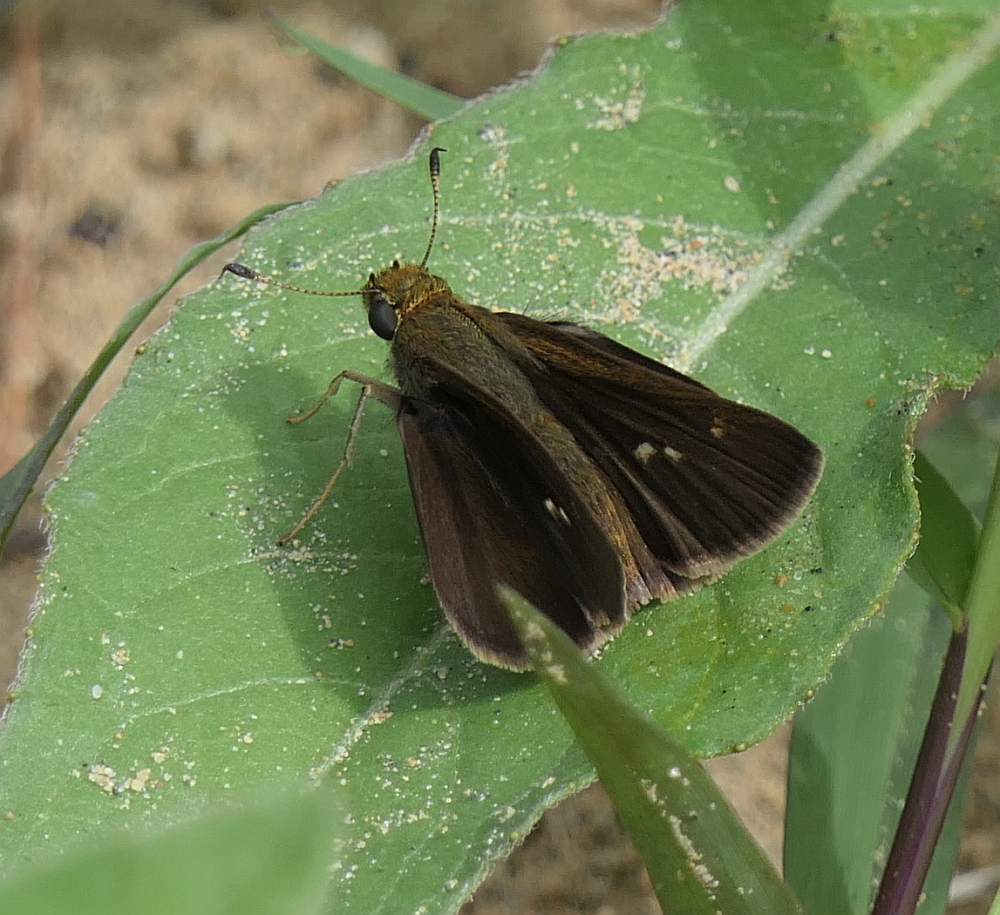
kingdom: Animalia
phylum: Arthropoda
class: Insecta
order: Lepidoptera
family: Hesperiidae
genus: Euphyes
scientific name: Euphyes vestris
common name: Dun skipper
